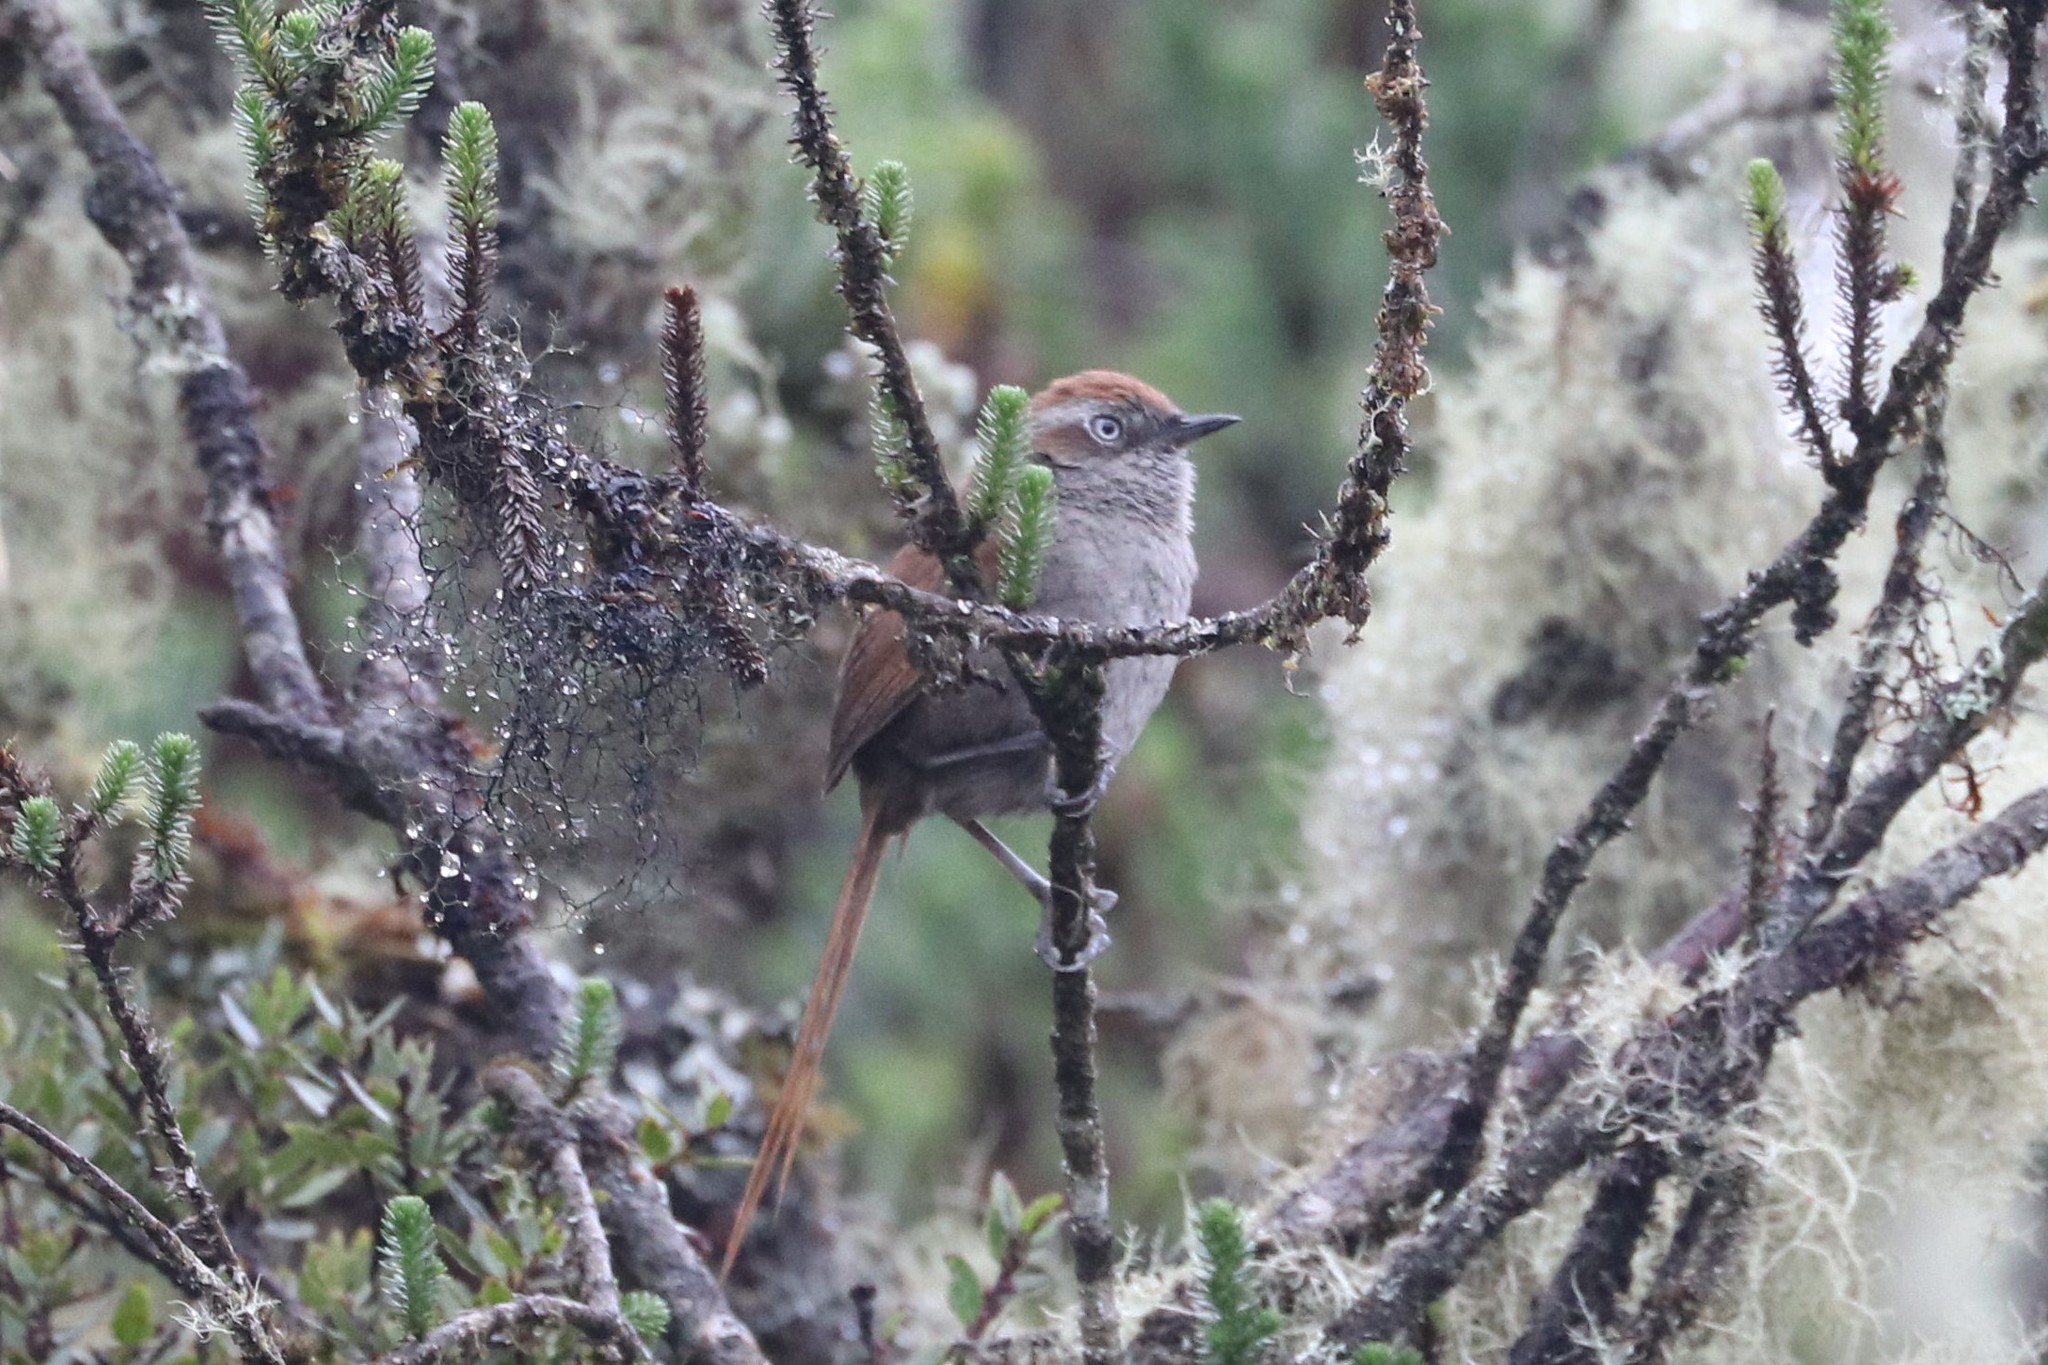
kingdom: Animalia
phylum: Chordata
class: Aves
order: Passeriformes
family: Furnariidae
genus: Schizoeaca
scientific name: Schizoeaca fuliginosa
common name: White-chinned thistletail
